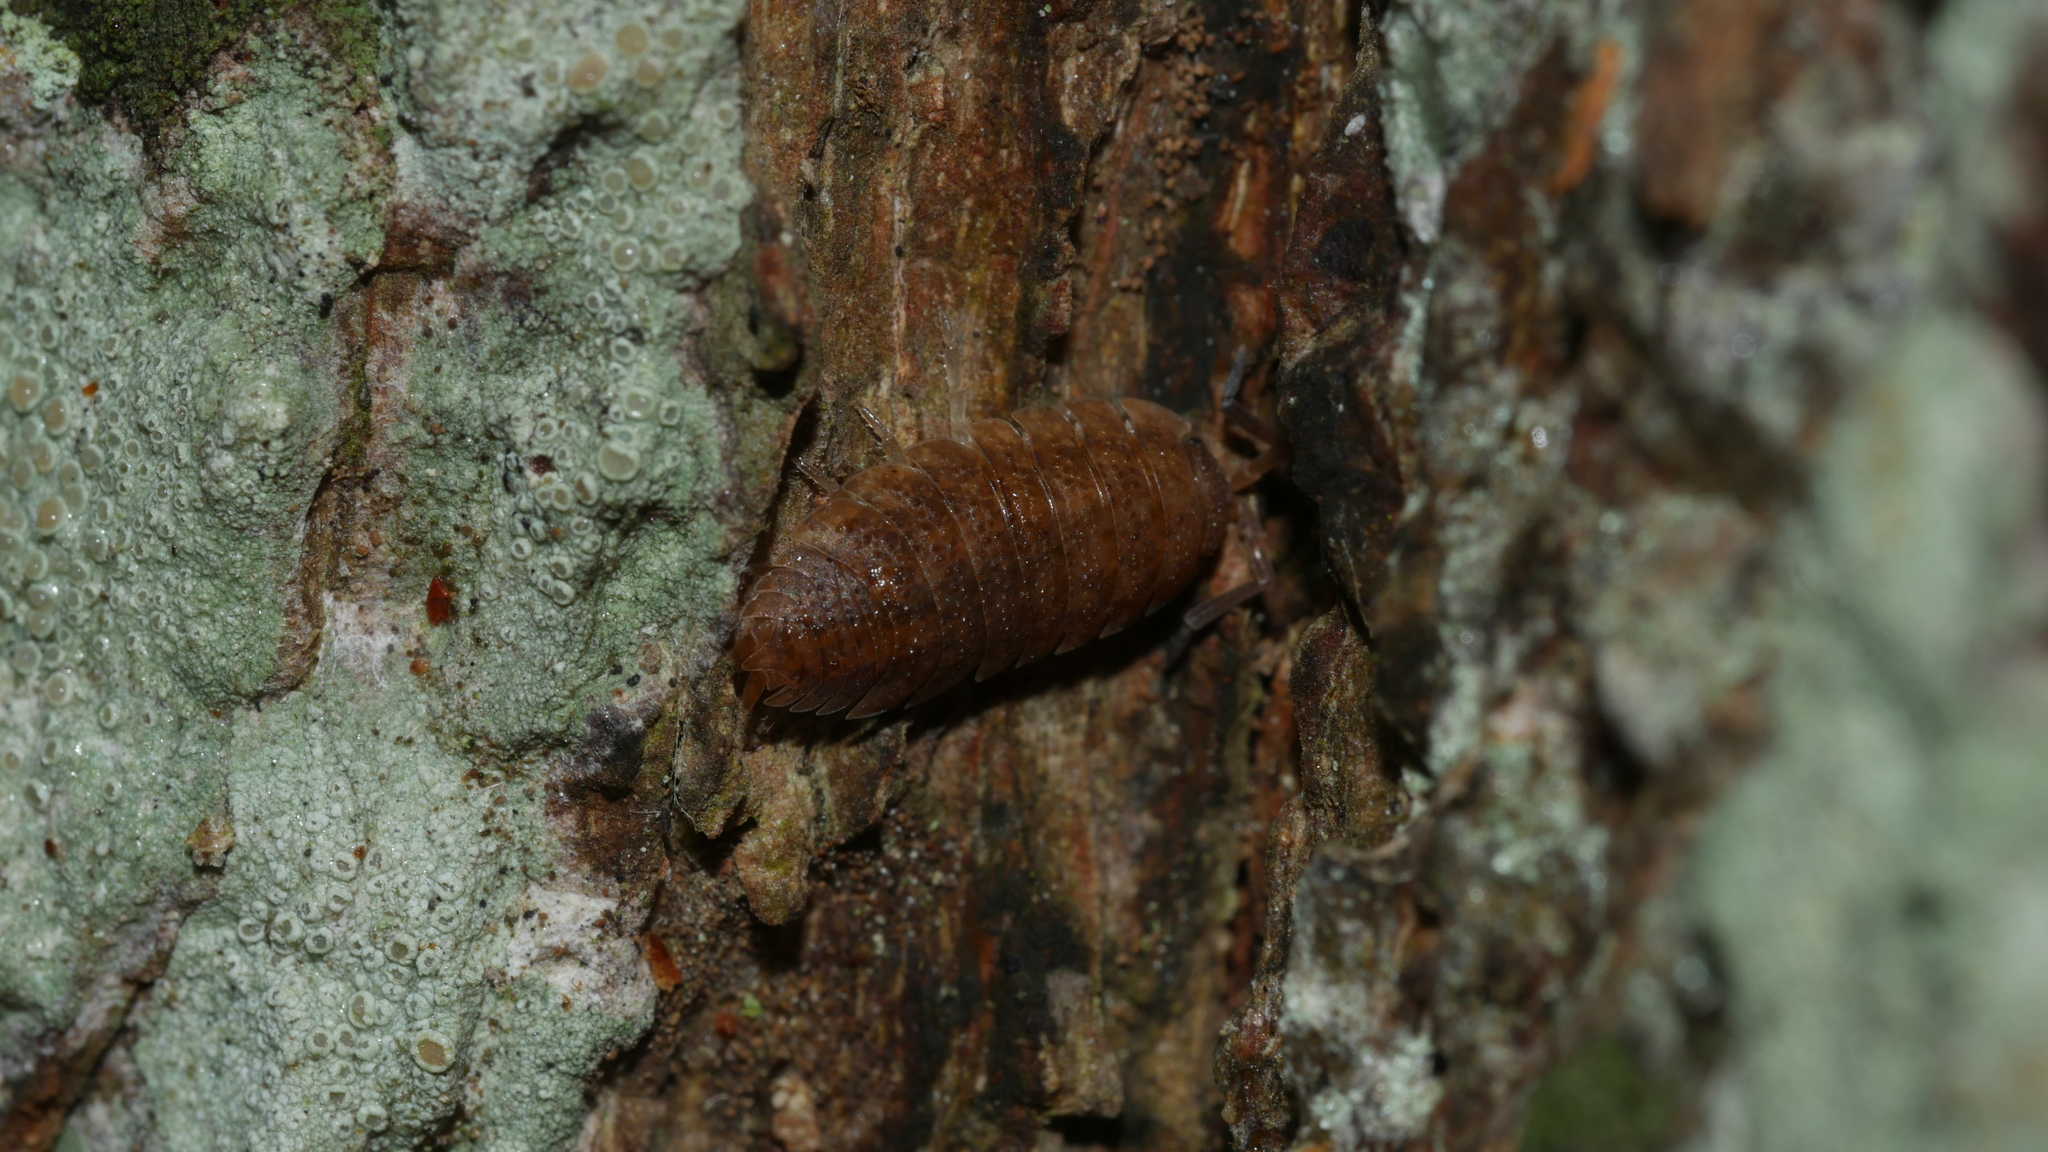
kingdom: Animalia
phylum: Arthropoda
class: Malacostraca
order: Isopoda
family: Porcellionidae
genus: Porcellio
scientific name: Porcellio scaber
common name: Common rough woodlouse
